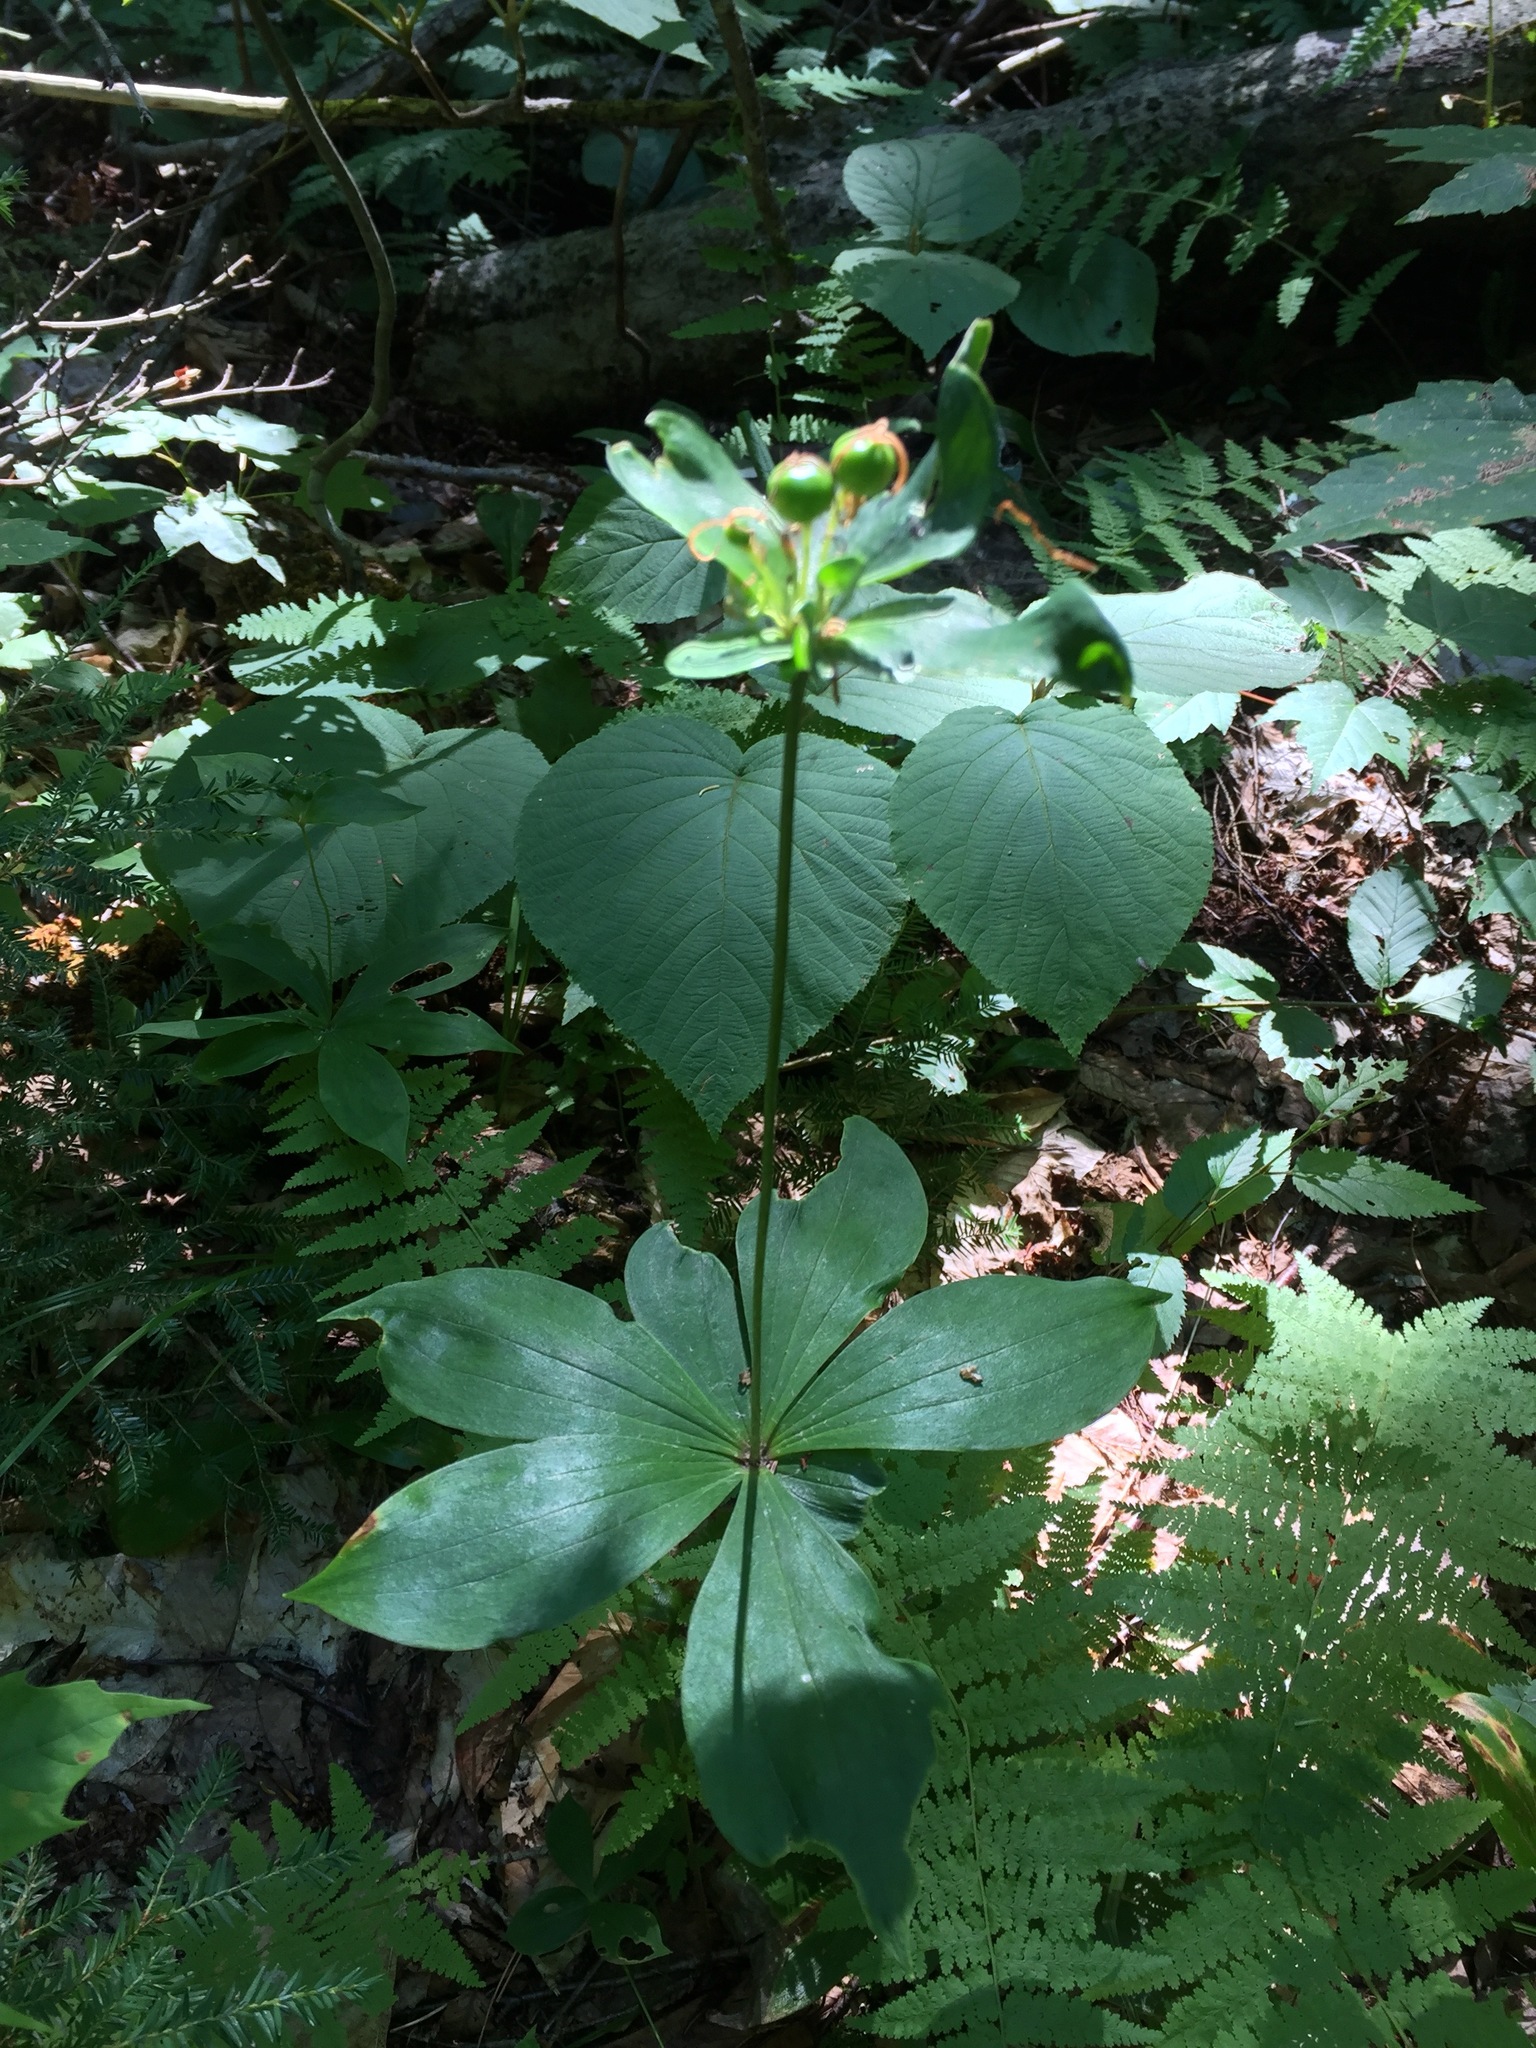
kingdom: Plantae
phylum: Tracheophyta
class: Liliopsida
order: Liliales
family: Liliaceae
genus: Medeola
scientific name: Medeola virginiana
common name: Indian cucumber-root
